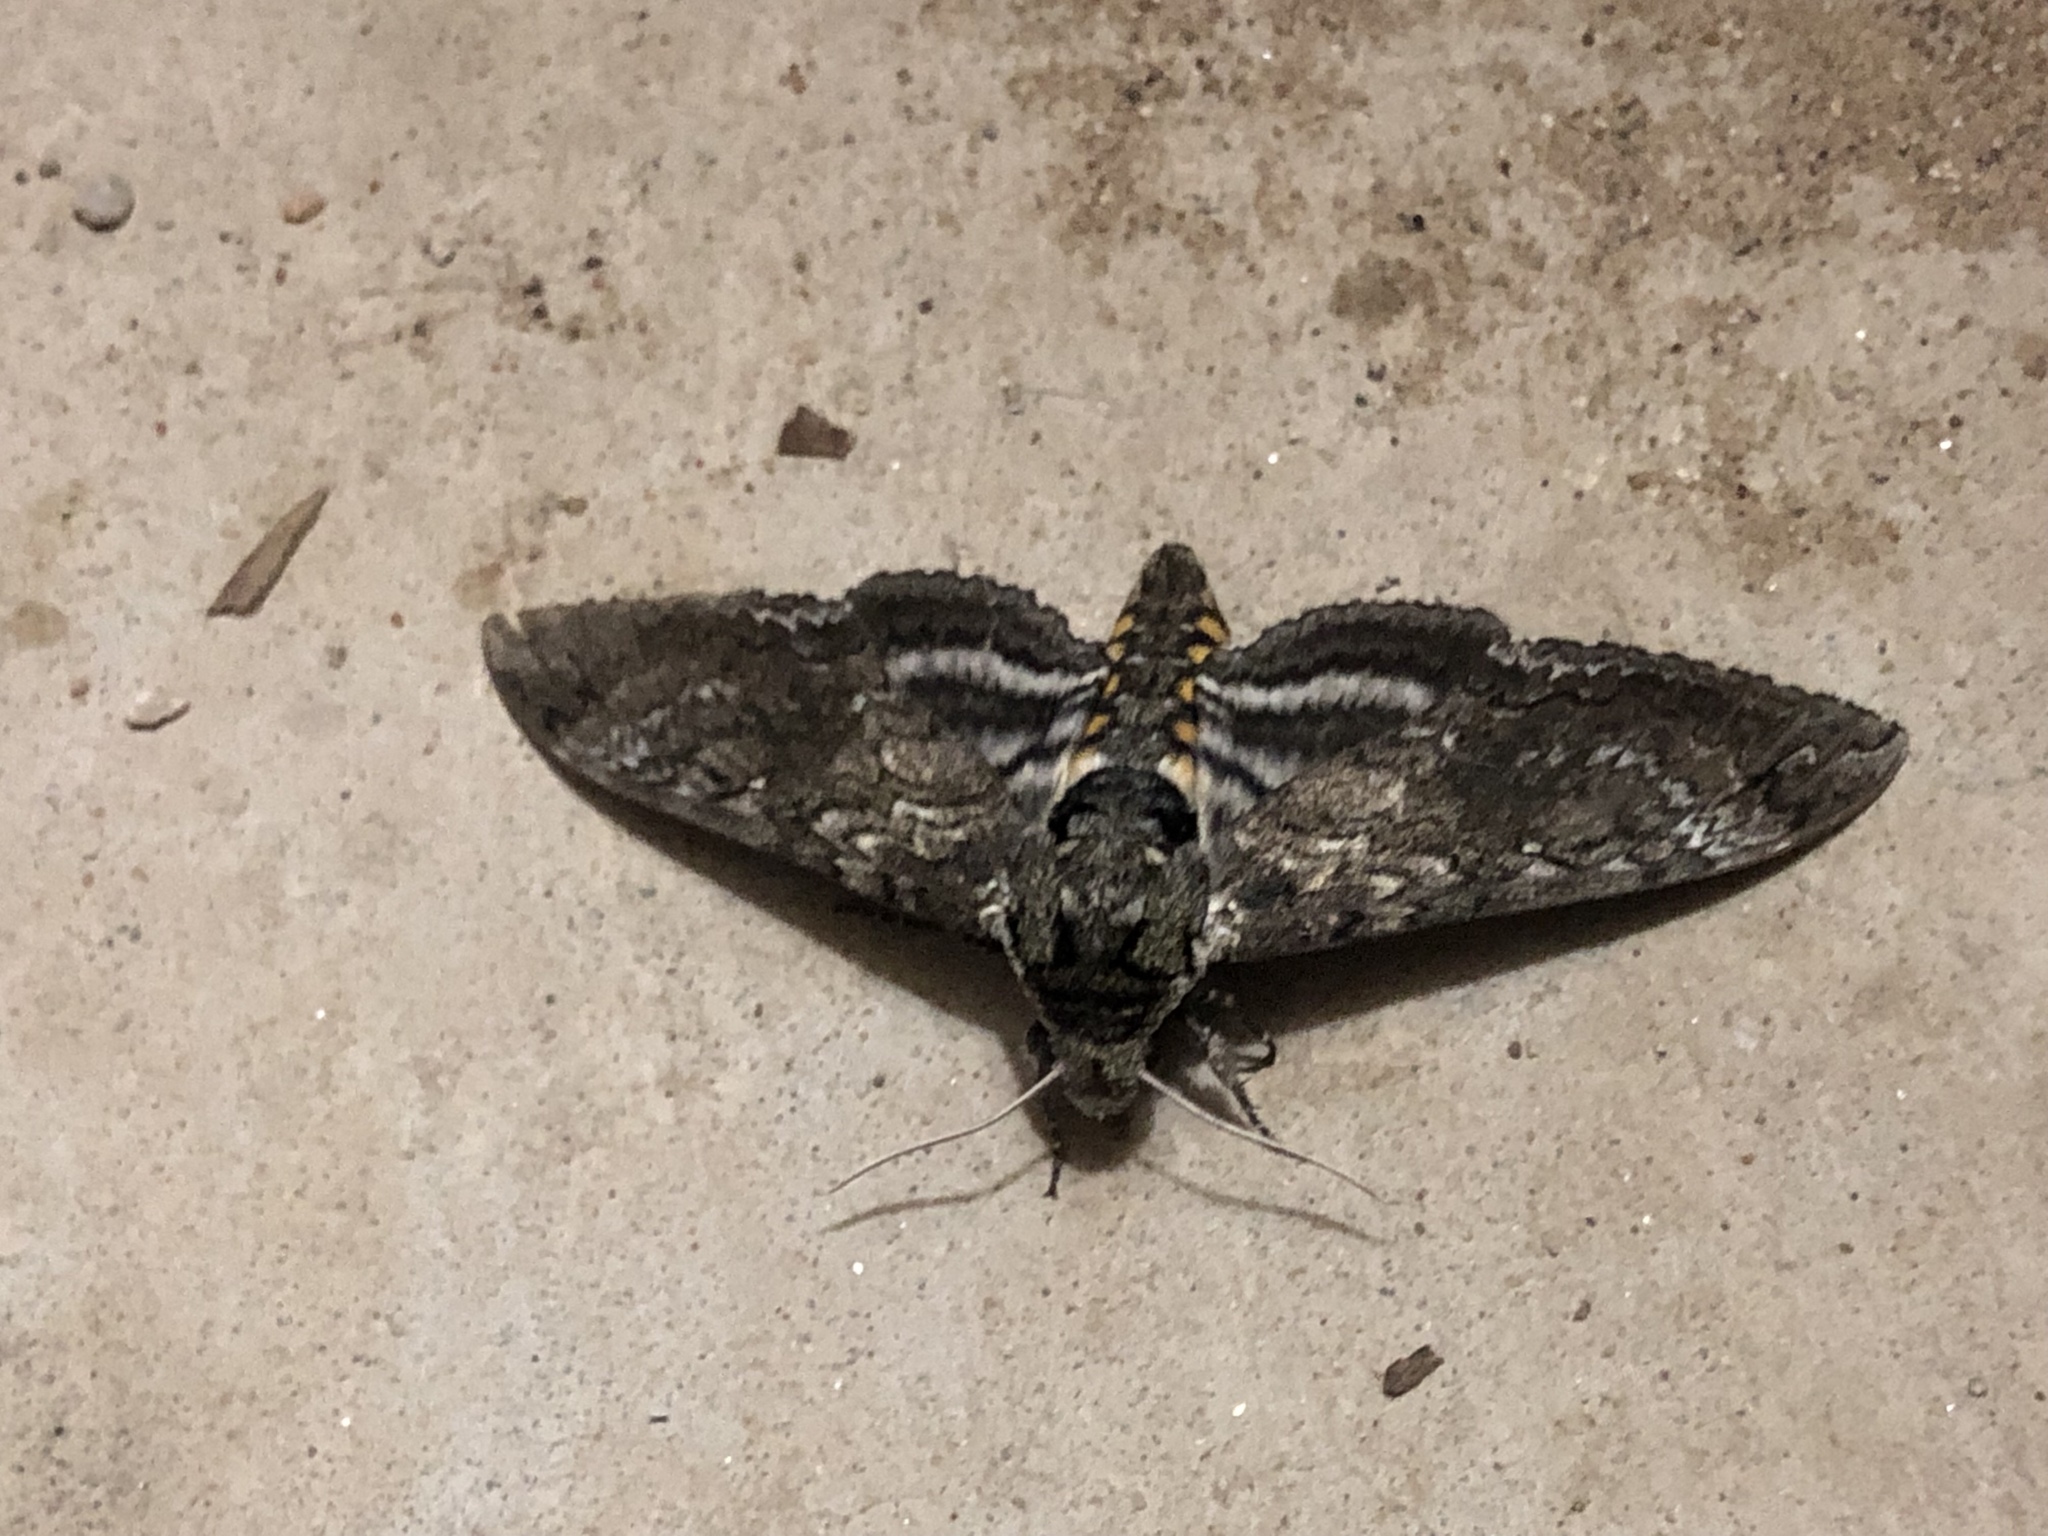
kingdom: Animalia
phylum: Arthropoda
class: Insecta
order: Lepidoptera
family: Sphingidae
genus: Manduca
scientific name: Manduca sexta
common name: Carolina sphinx
